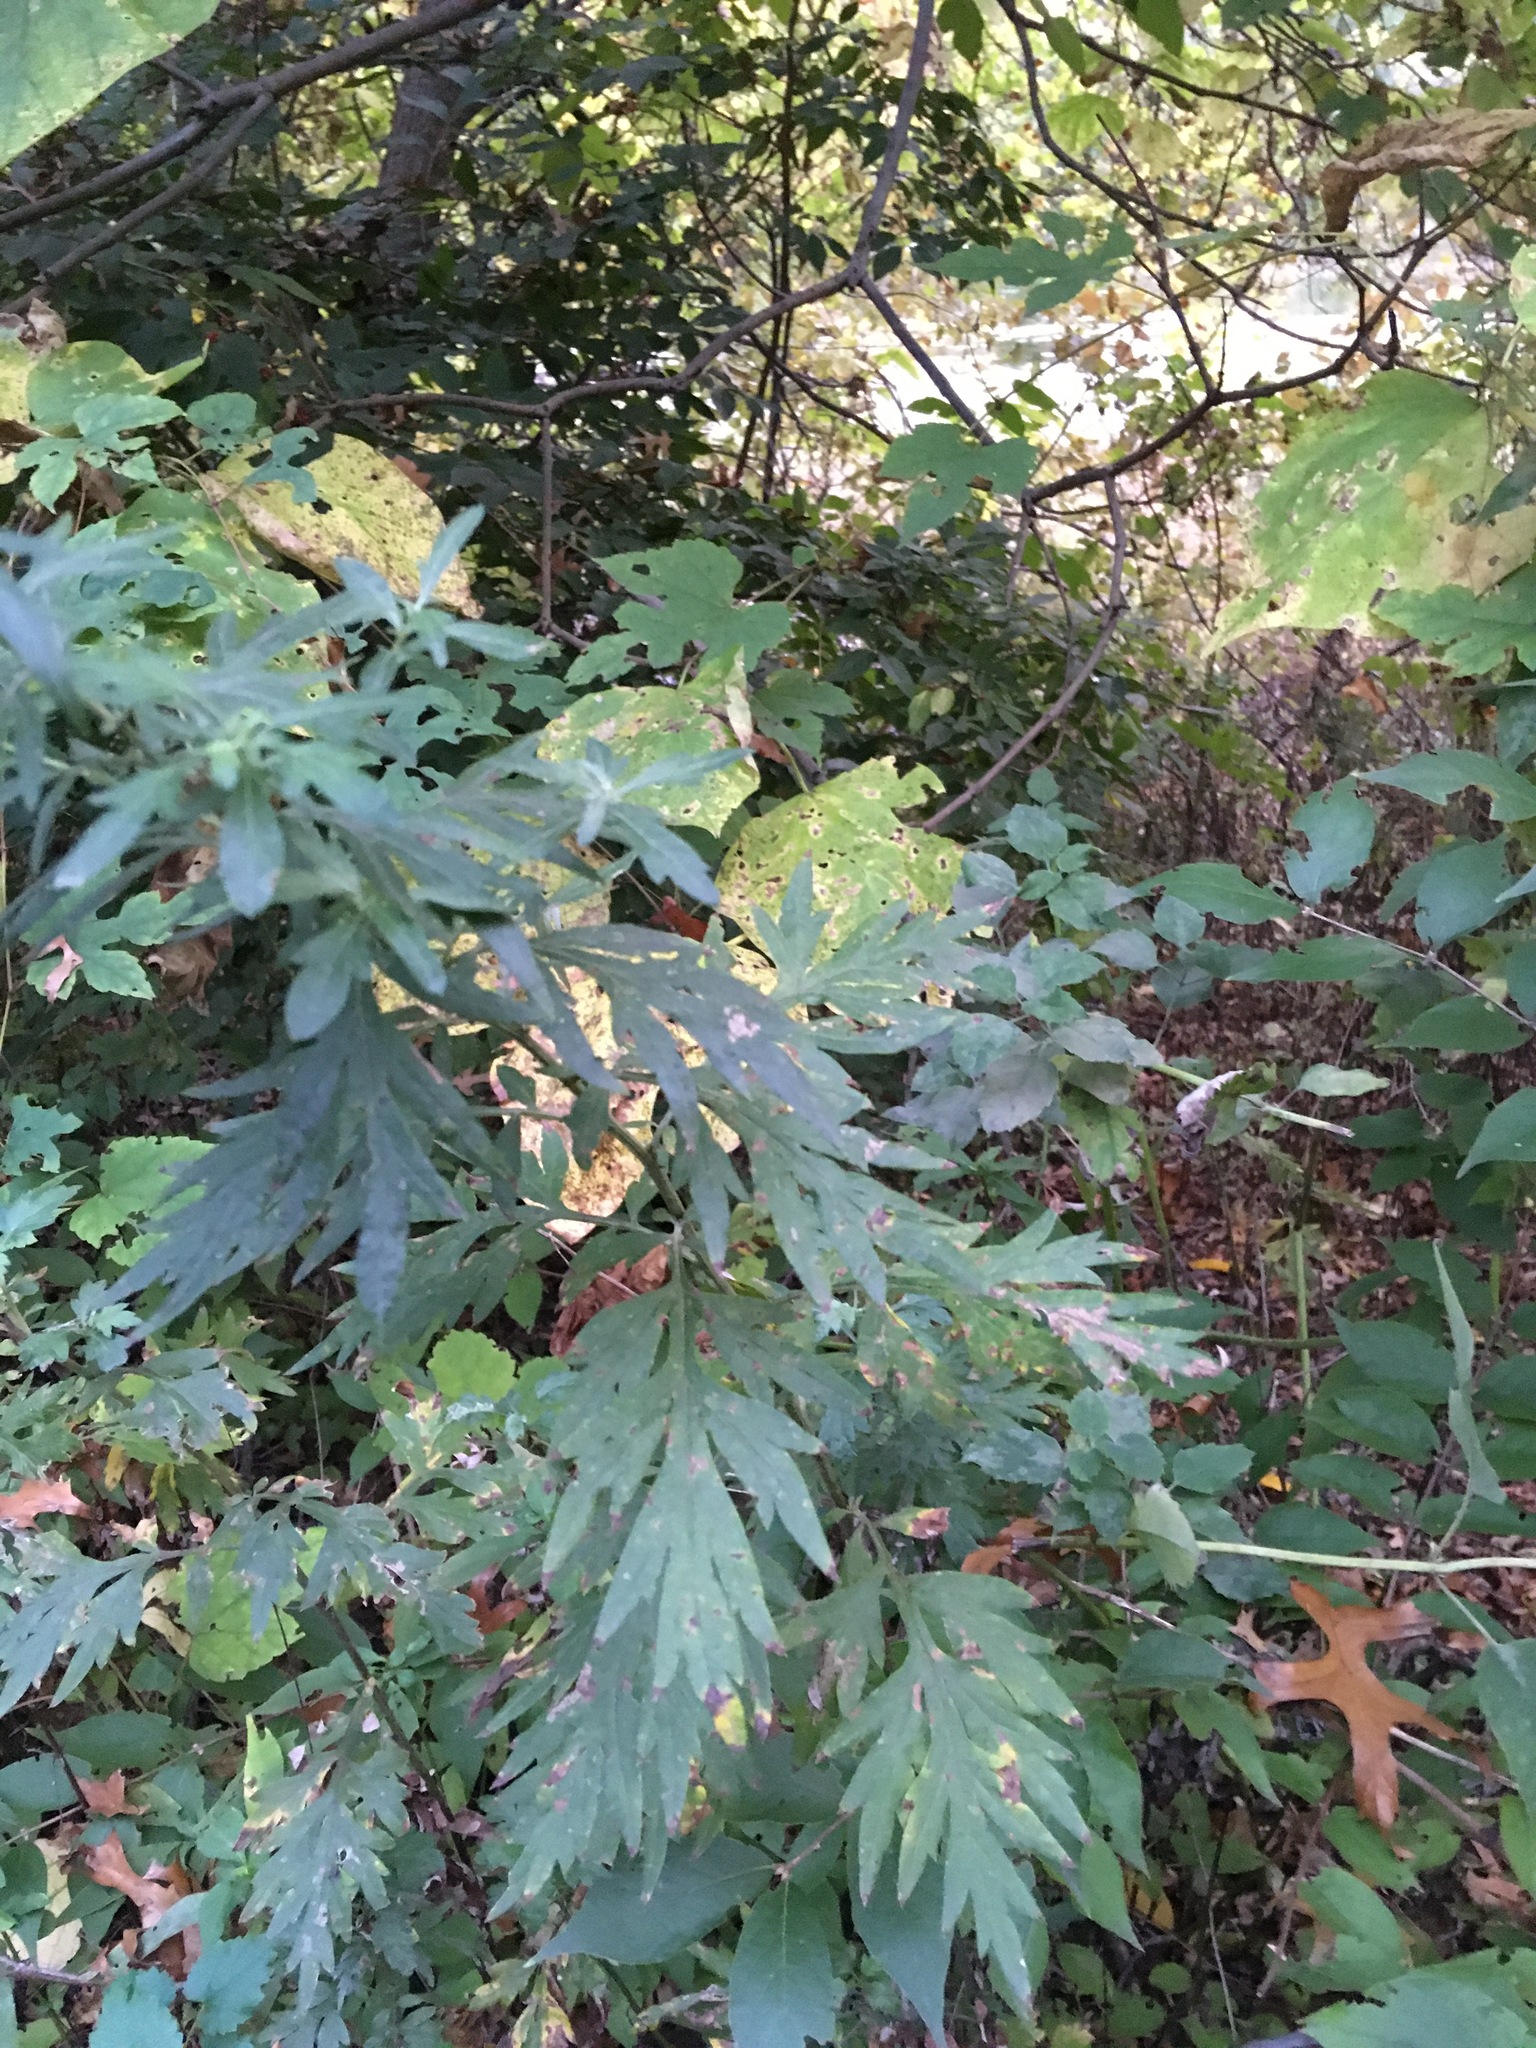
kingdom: Plantae
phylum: Tracheophyta
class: Magnoliopsida
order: Asterales
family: Asteraceae
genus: Artemisia
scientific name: Artemisia vulgaris
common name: Mugwort
